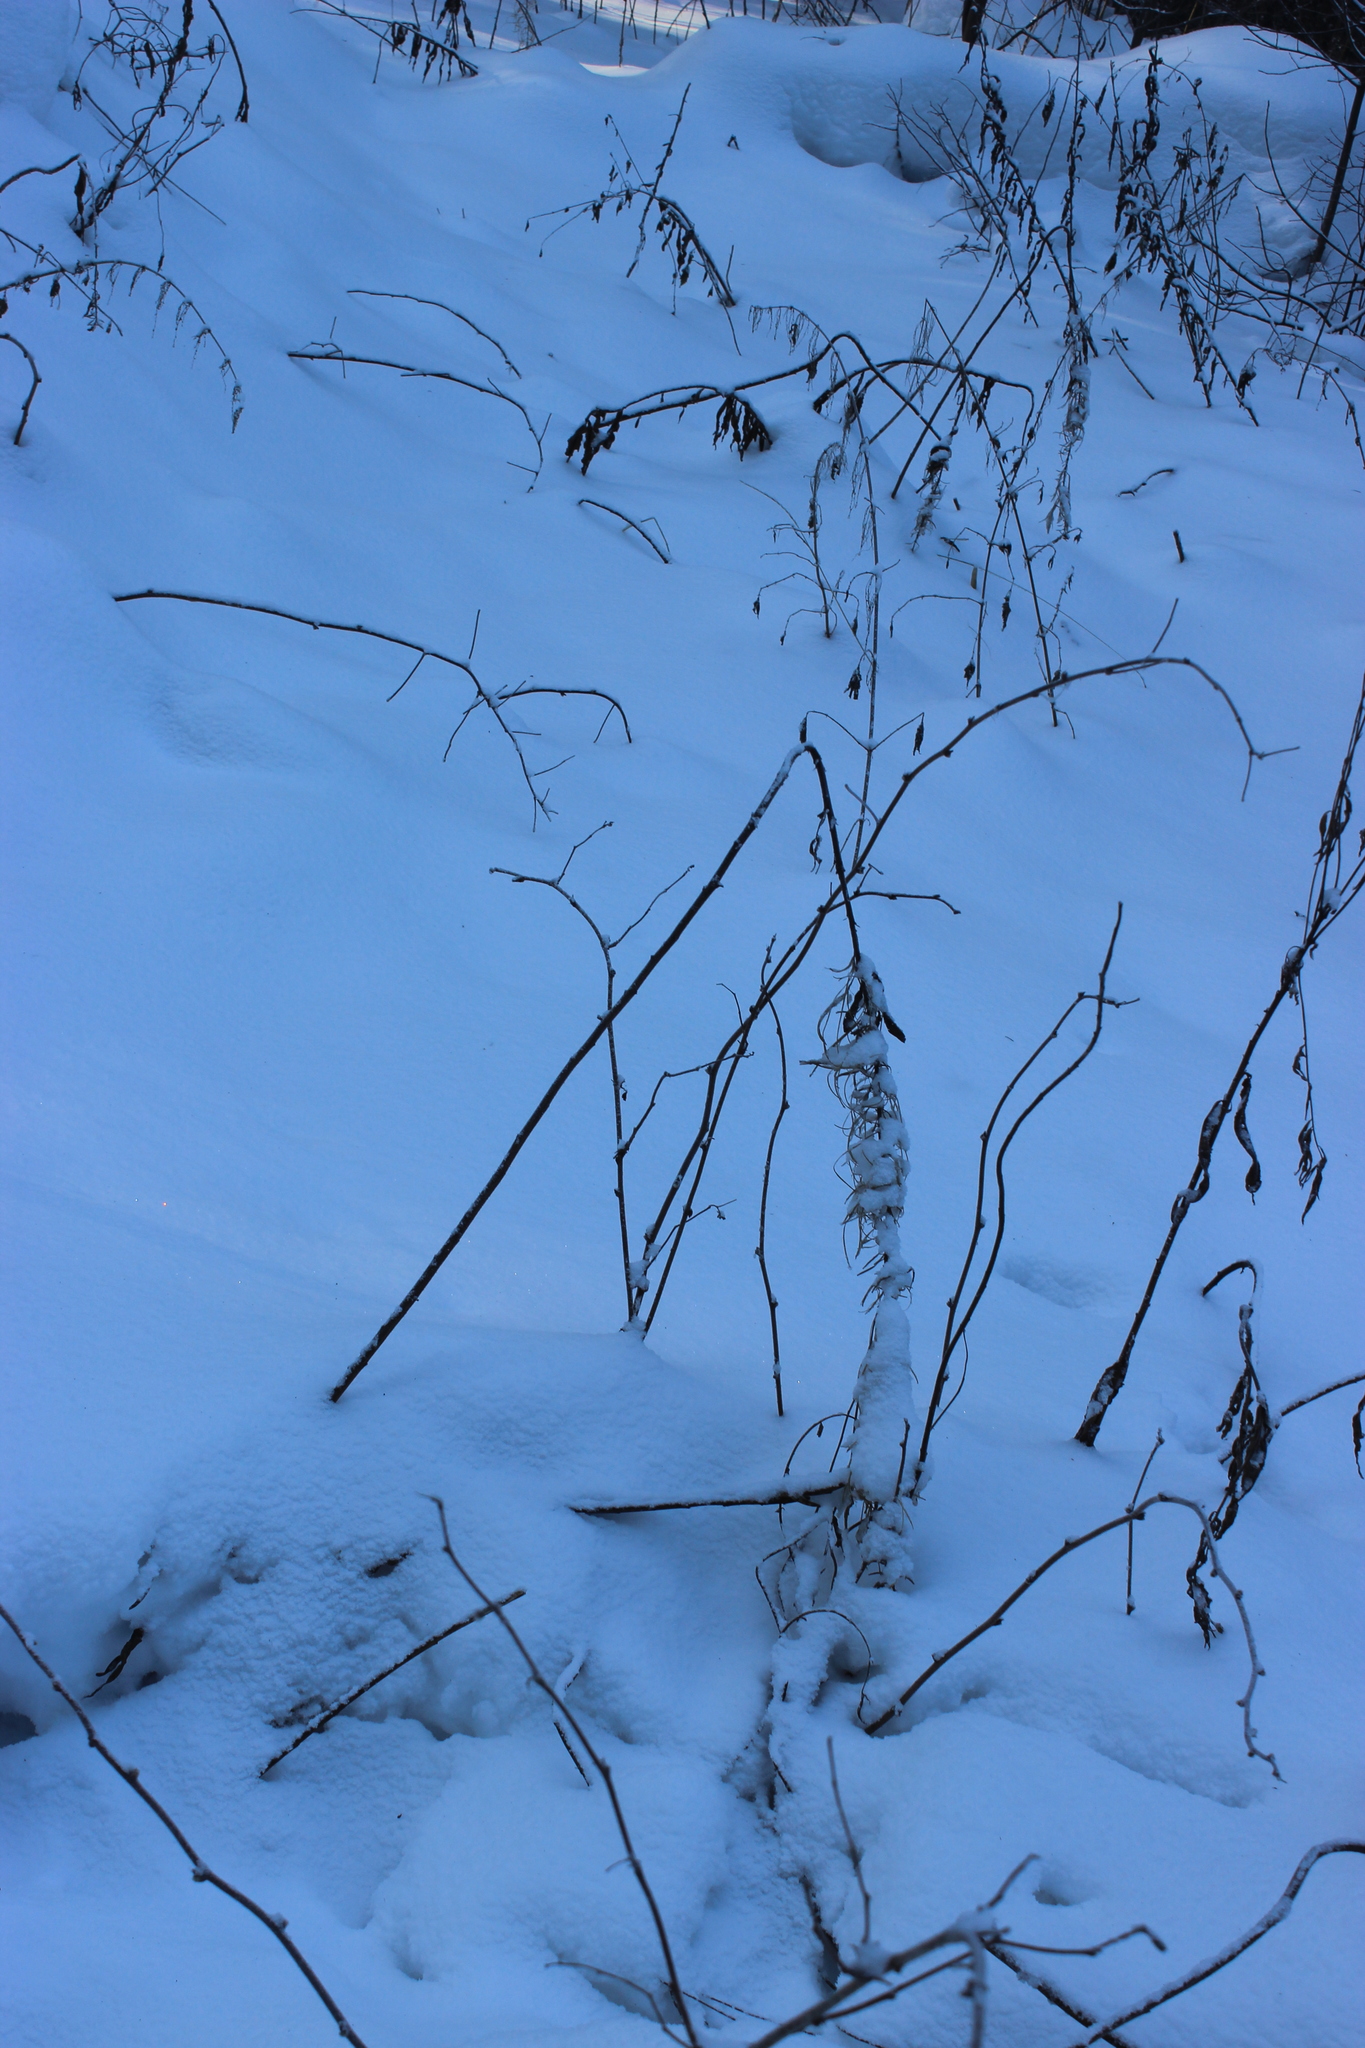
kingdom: Plantae
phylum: Tracheophyta
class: Magnoliopsida
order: Myrtales
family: Onagraceae
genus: Chamaenerion
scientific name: Chamaenerion angustifolium
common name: Fireweed
